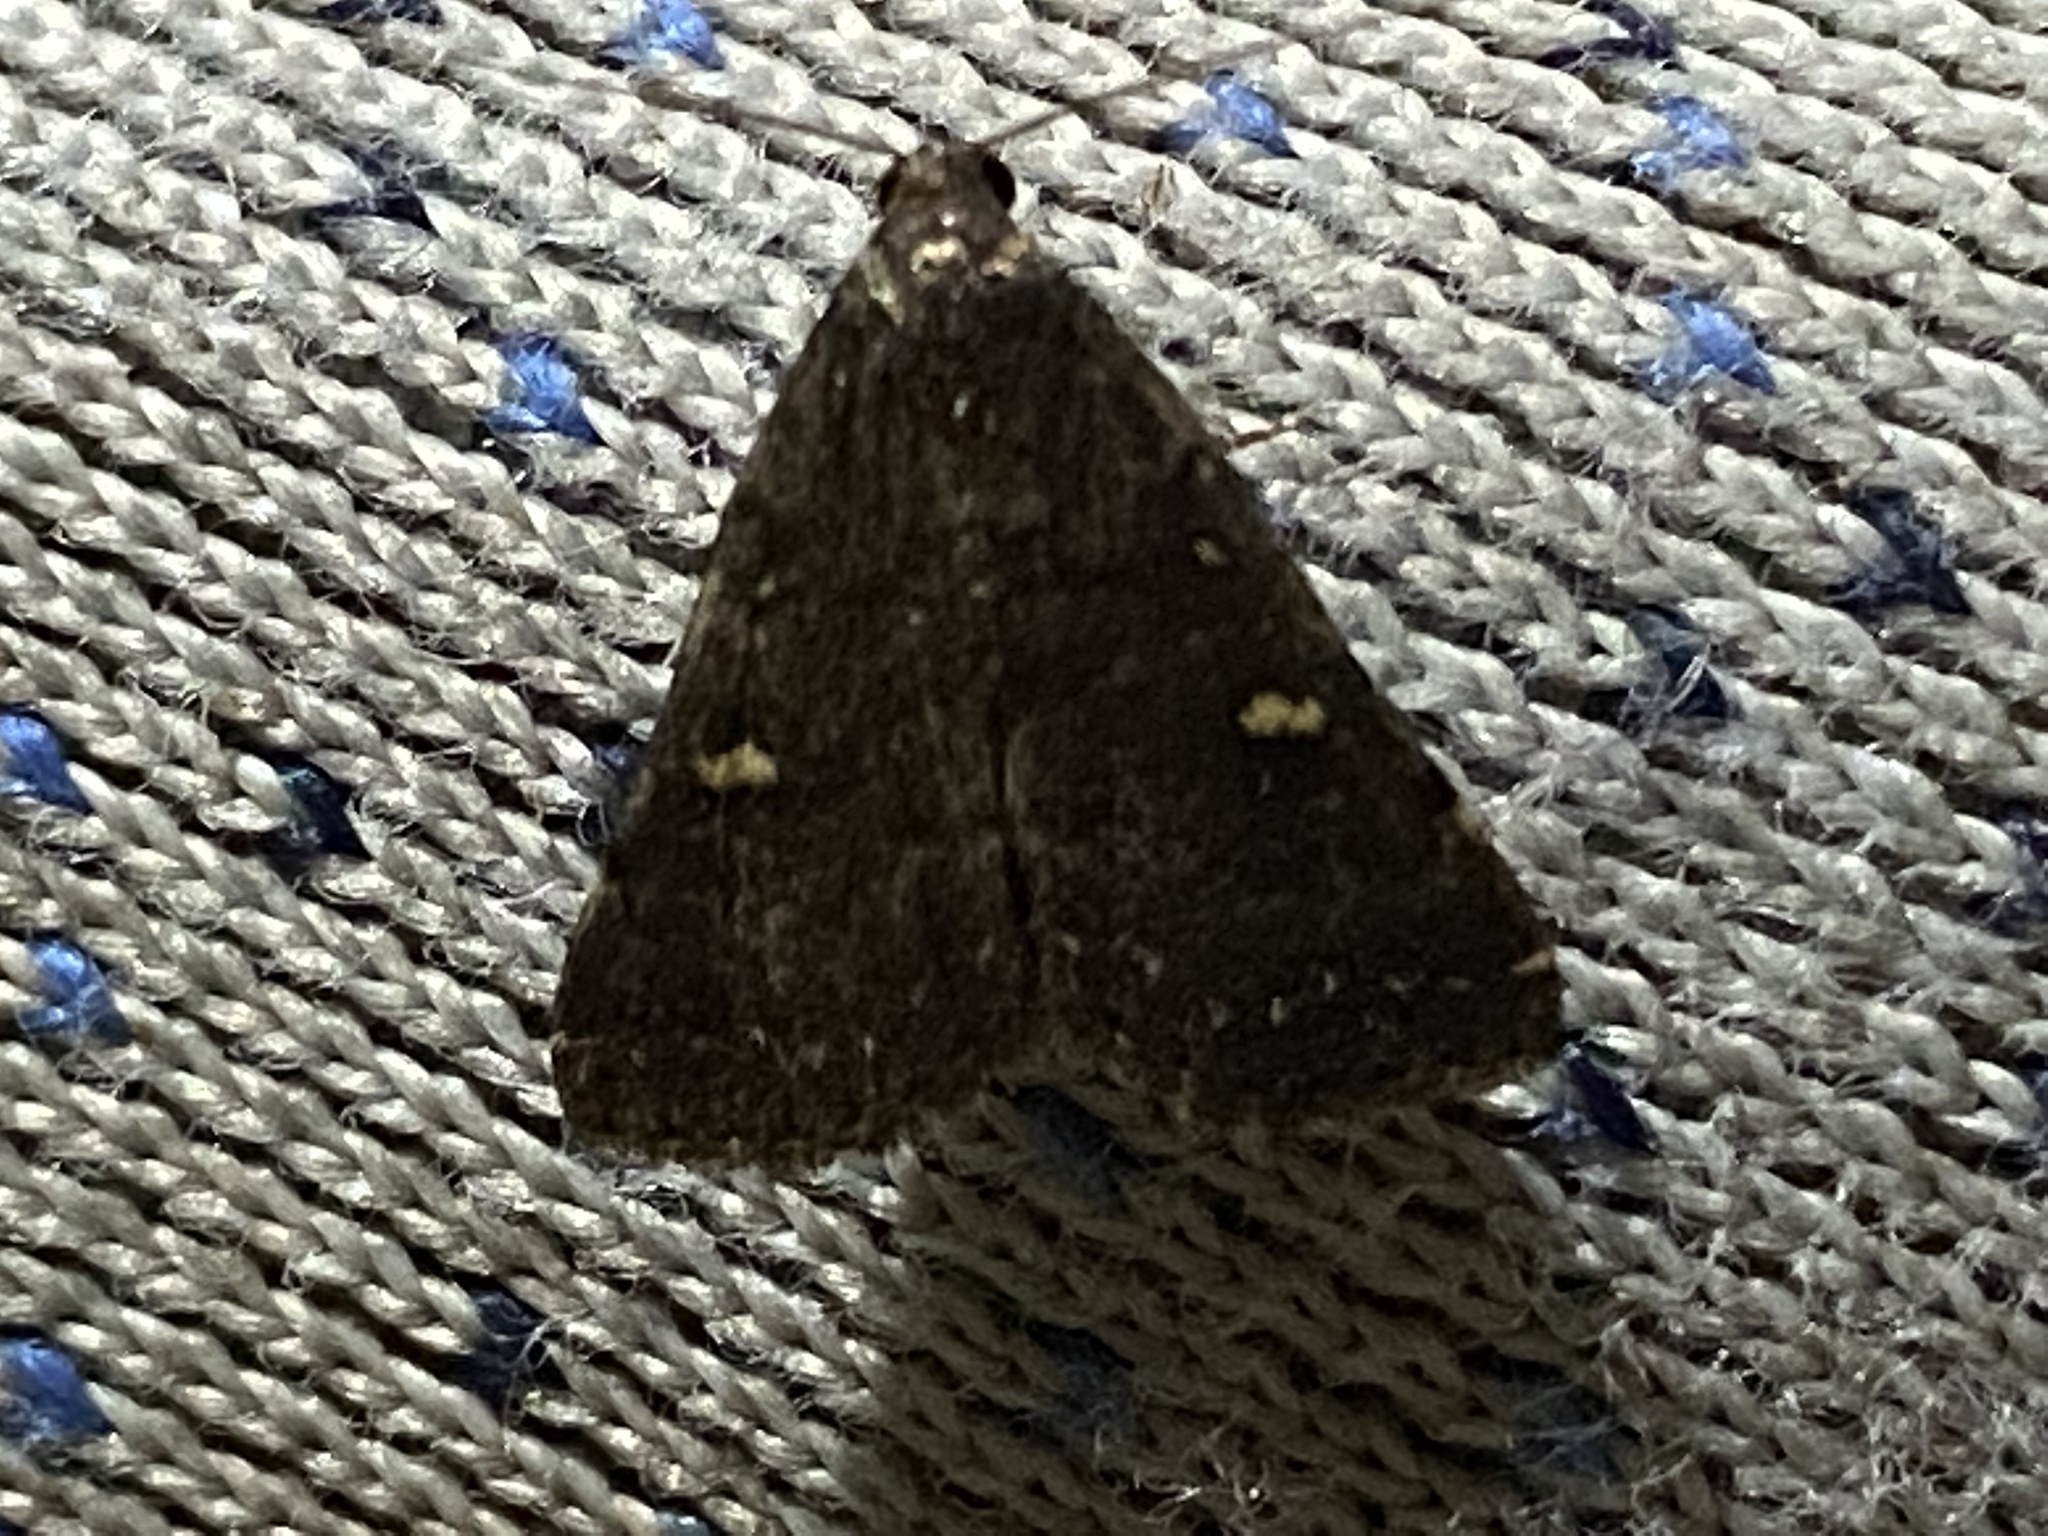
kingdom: Animalia
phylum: Arthropoda
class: Insecta
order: Lepidoptera
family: Erebidae
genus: Tetanolita
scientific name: Tetanolita mynesalis
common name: Smoky tetanolita moth
